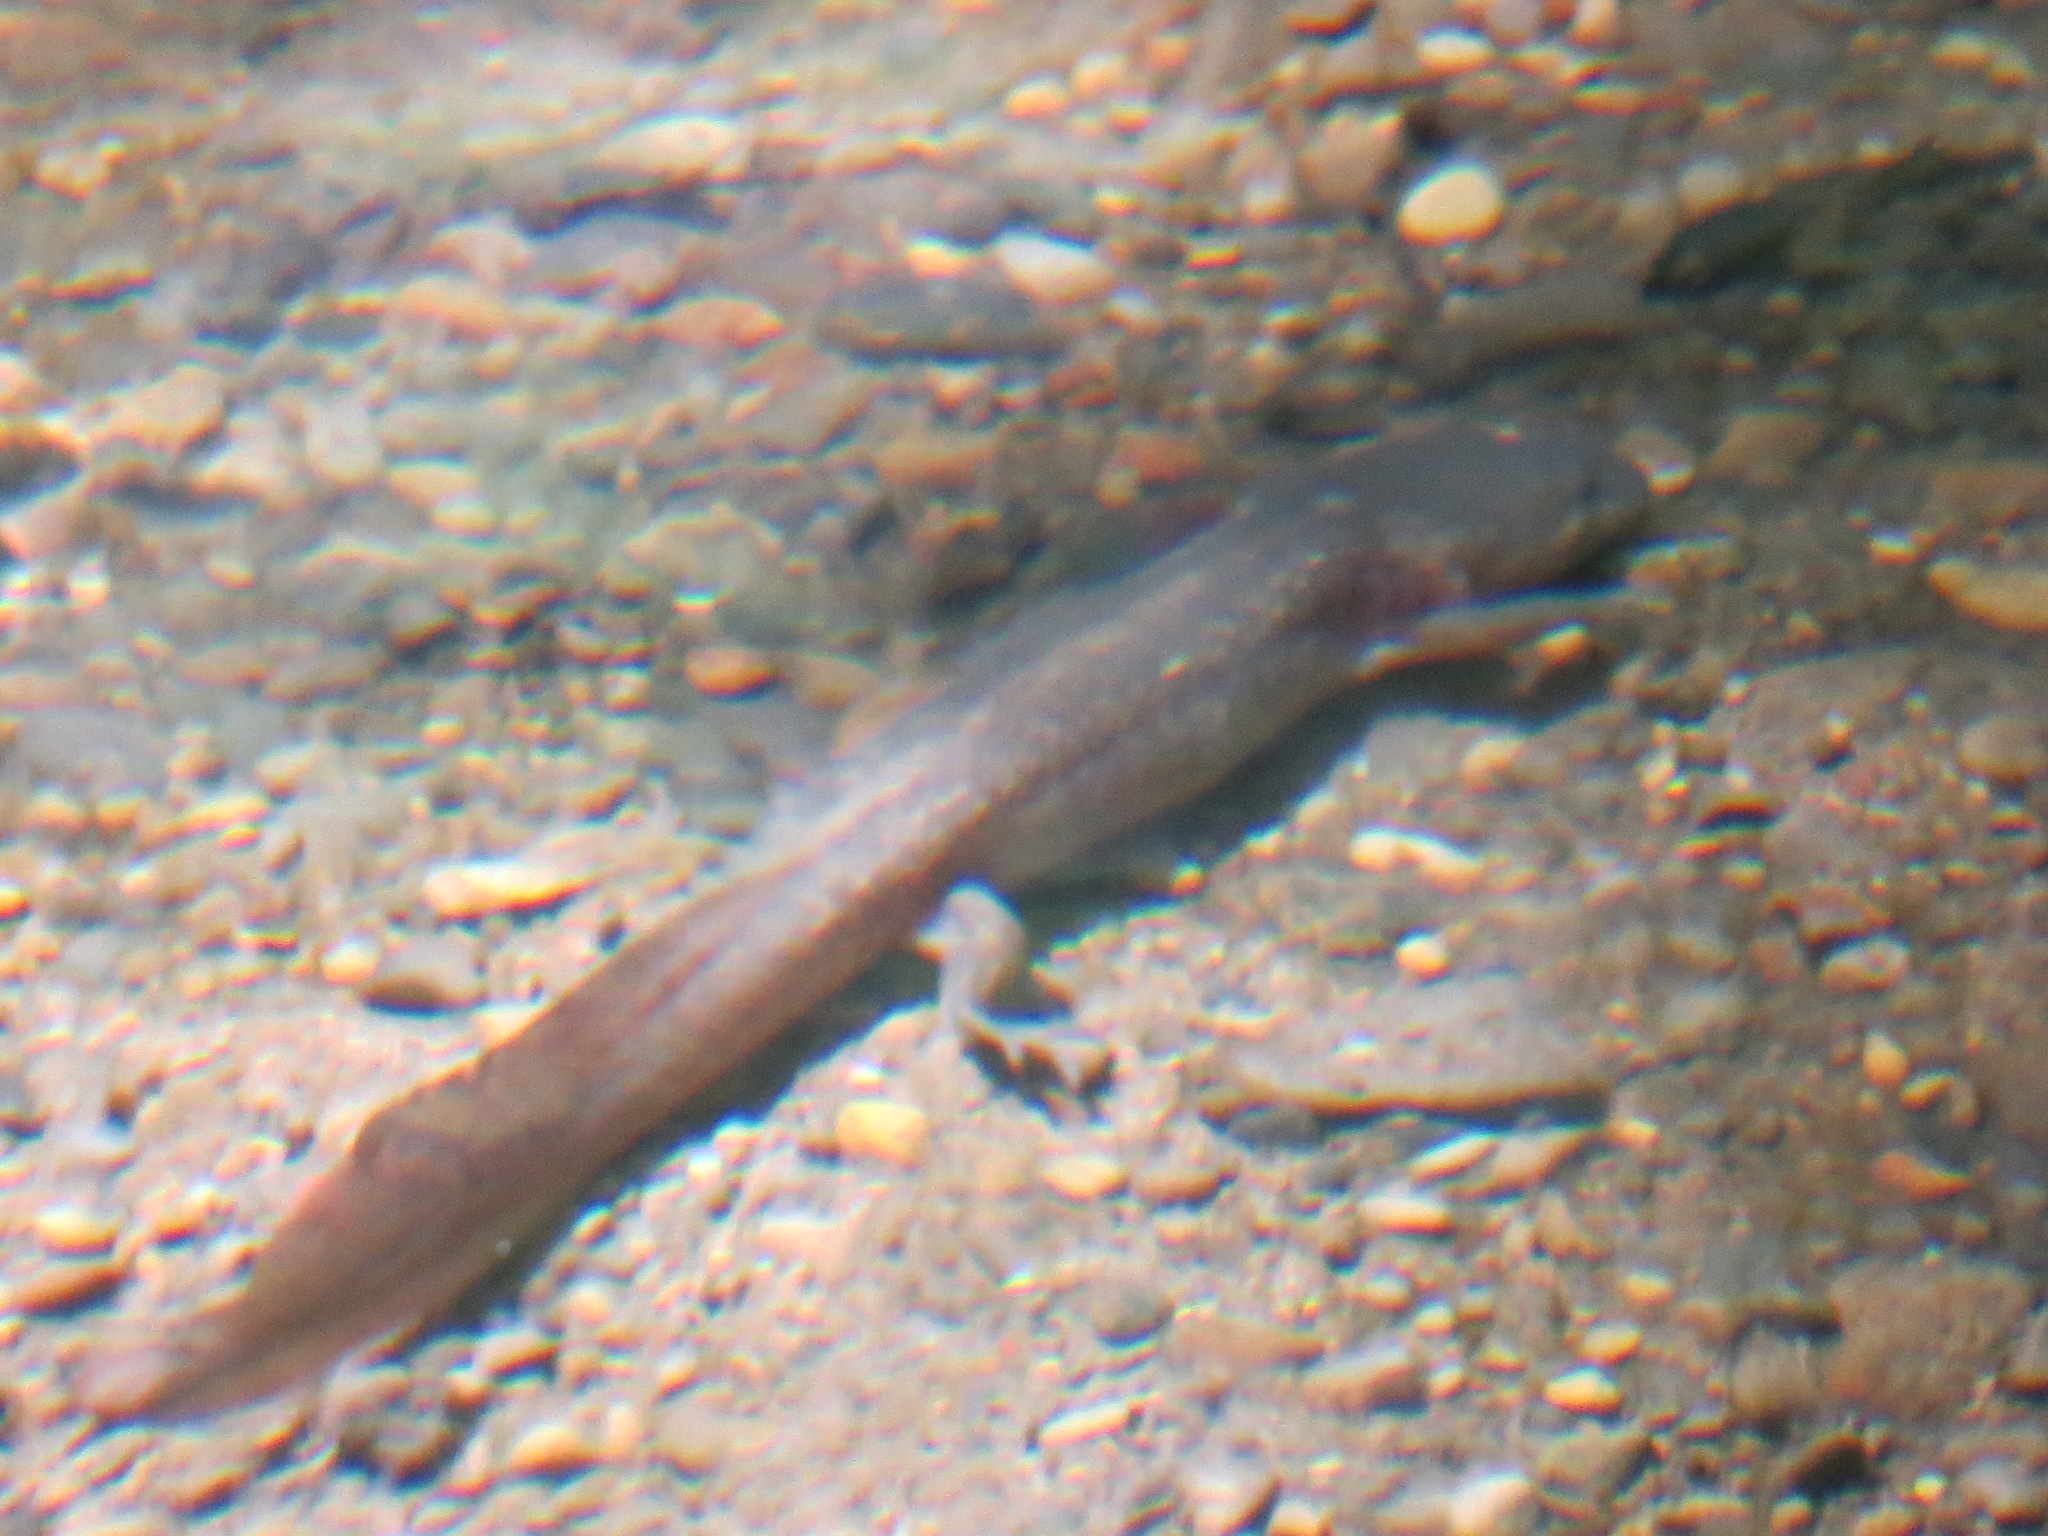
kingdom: Animalia
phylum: Chordata
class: Amphibia
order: Caudata
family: Ambystomatidae
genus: Dicamptodon
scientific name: Dicamptodon ensatus
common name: California giant salamander
